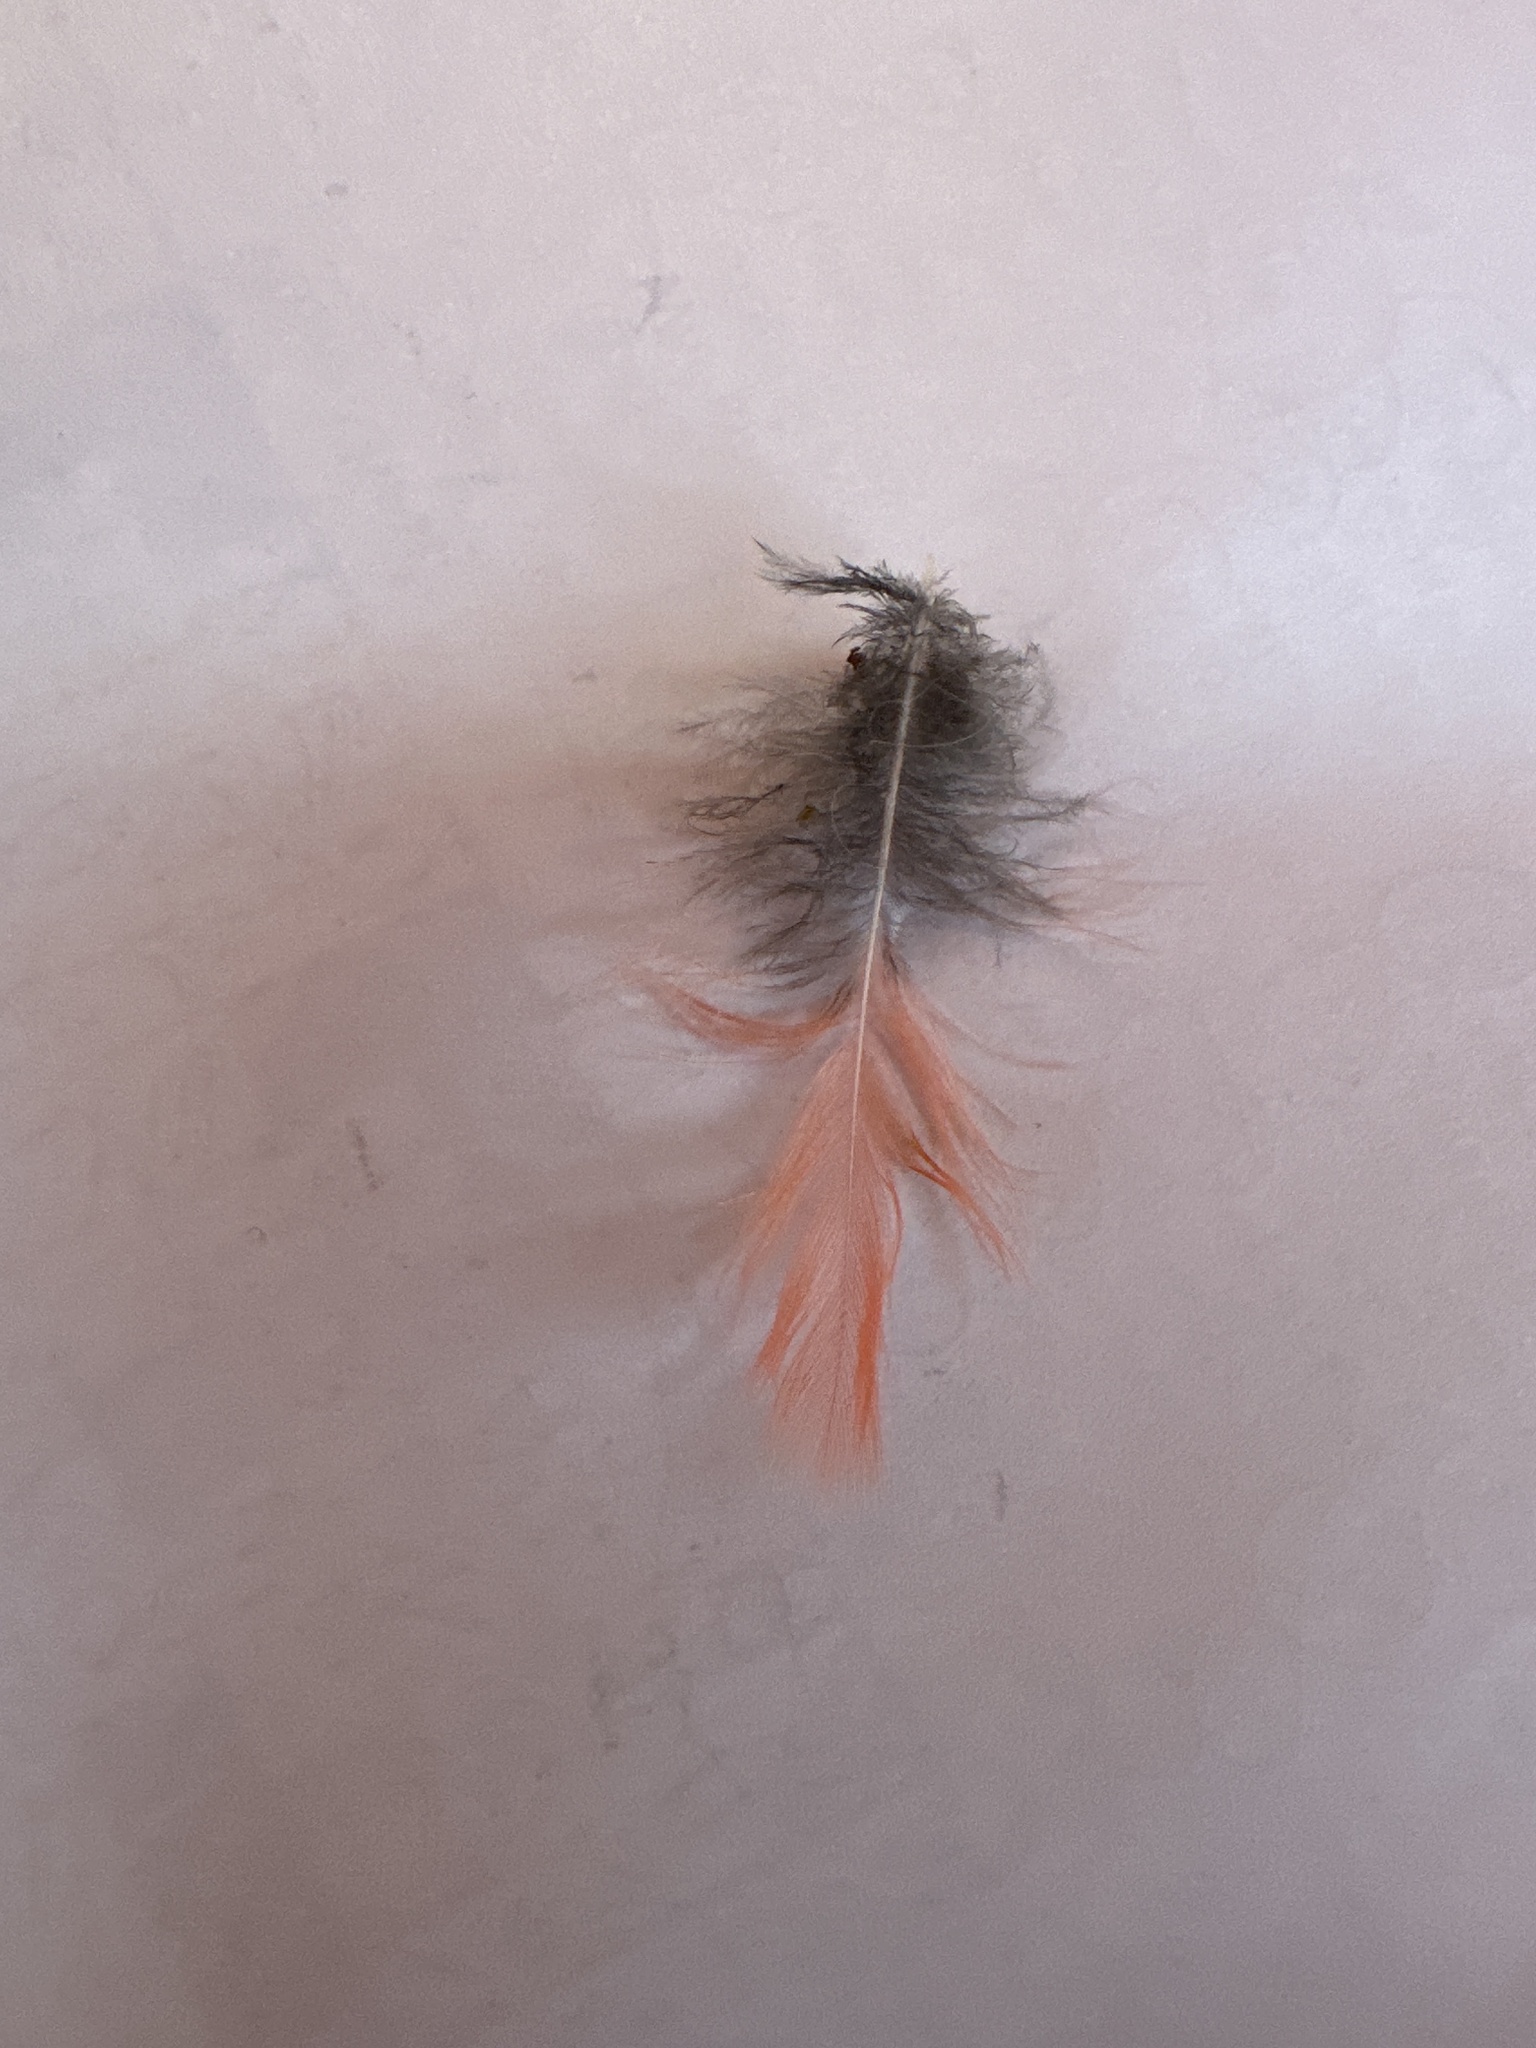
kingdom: Animalia
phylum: Chordata
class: Aves
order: Passeriformes
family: Cardinalidae
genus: Cardinalis
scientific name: Cardinalis cardinalis
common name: Northern cardinal
